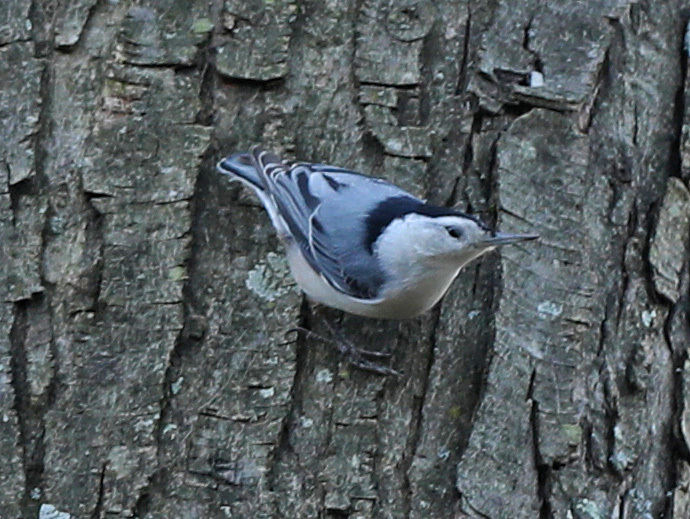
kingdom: Animalia
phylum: Chordata
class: Aves
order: Passeriformes
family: Sittidae
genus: Sitta
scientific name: Sitta carolinensis
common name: White-breasted nuthatch
